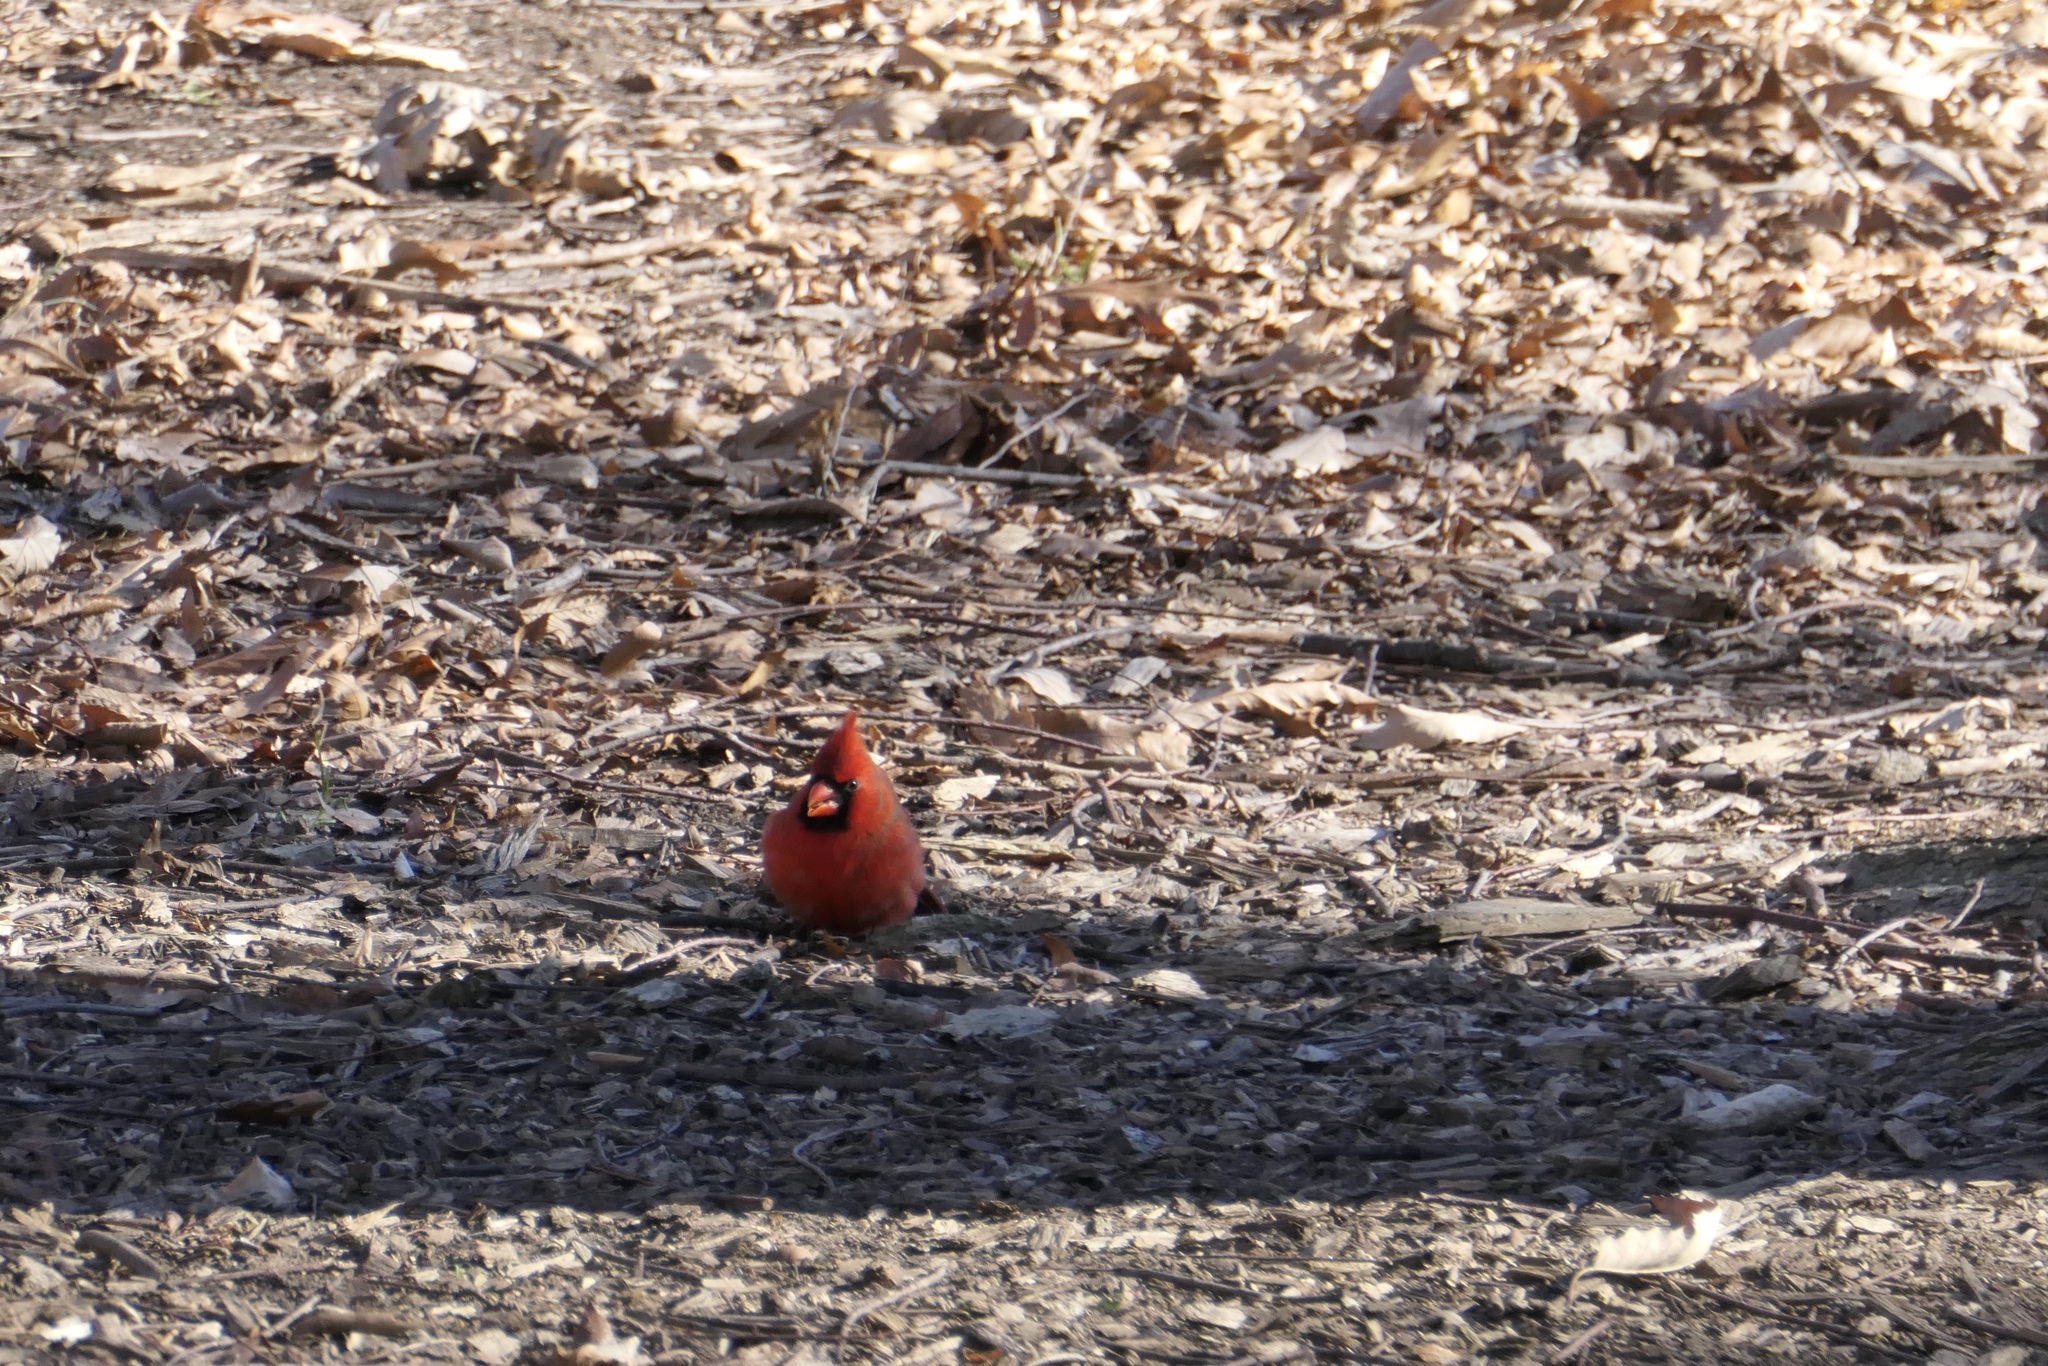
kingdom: Animalia
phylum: Chordata
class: Aves
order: Passeriformes
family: Cardinalidae
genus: Cardinalis
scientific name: Cardinalis cardinalis
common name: Northern cardinal
